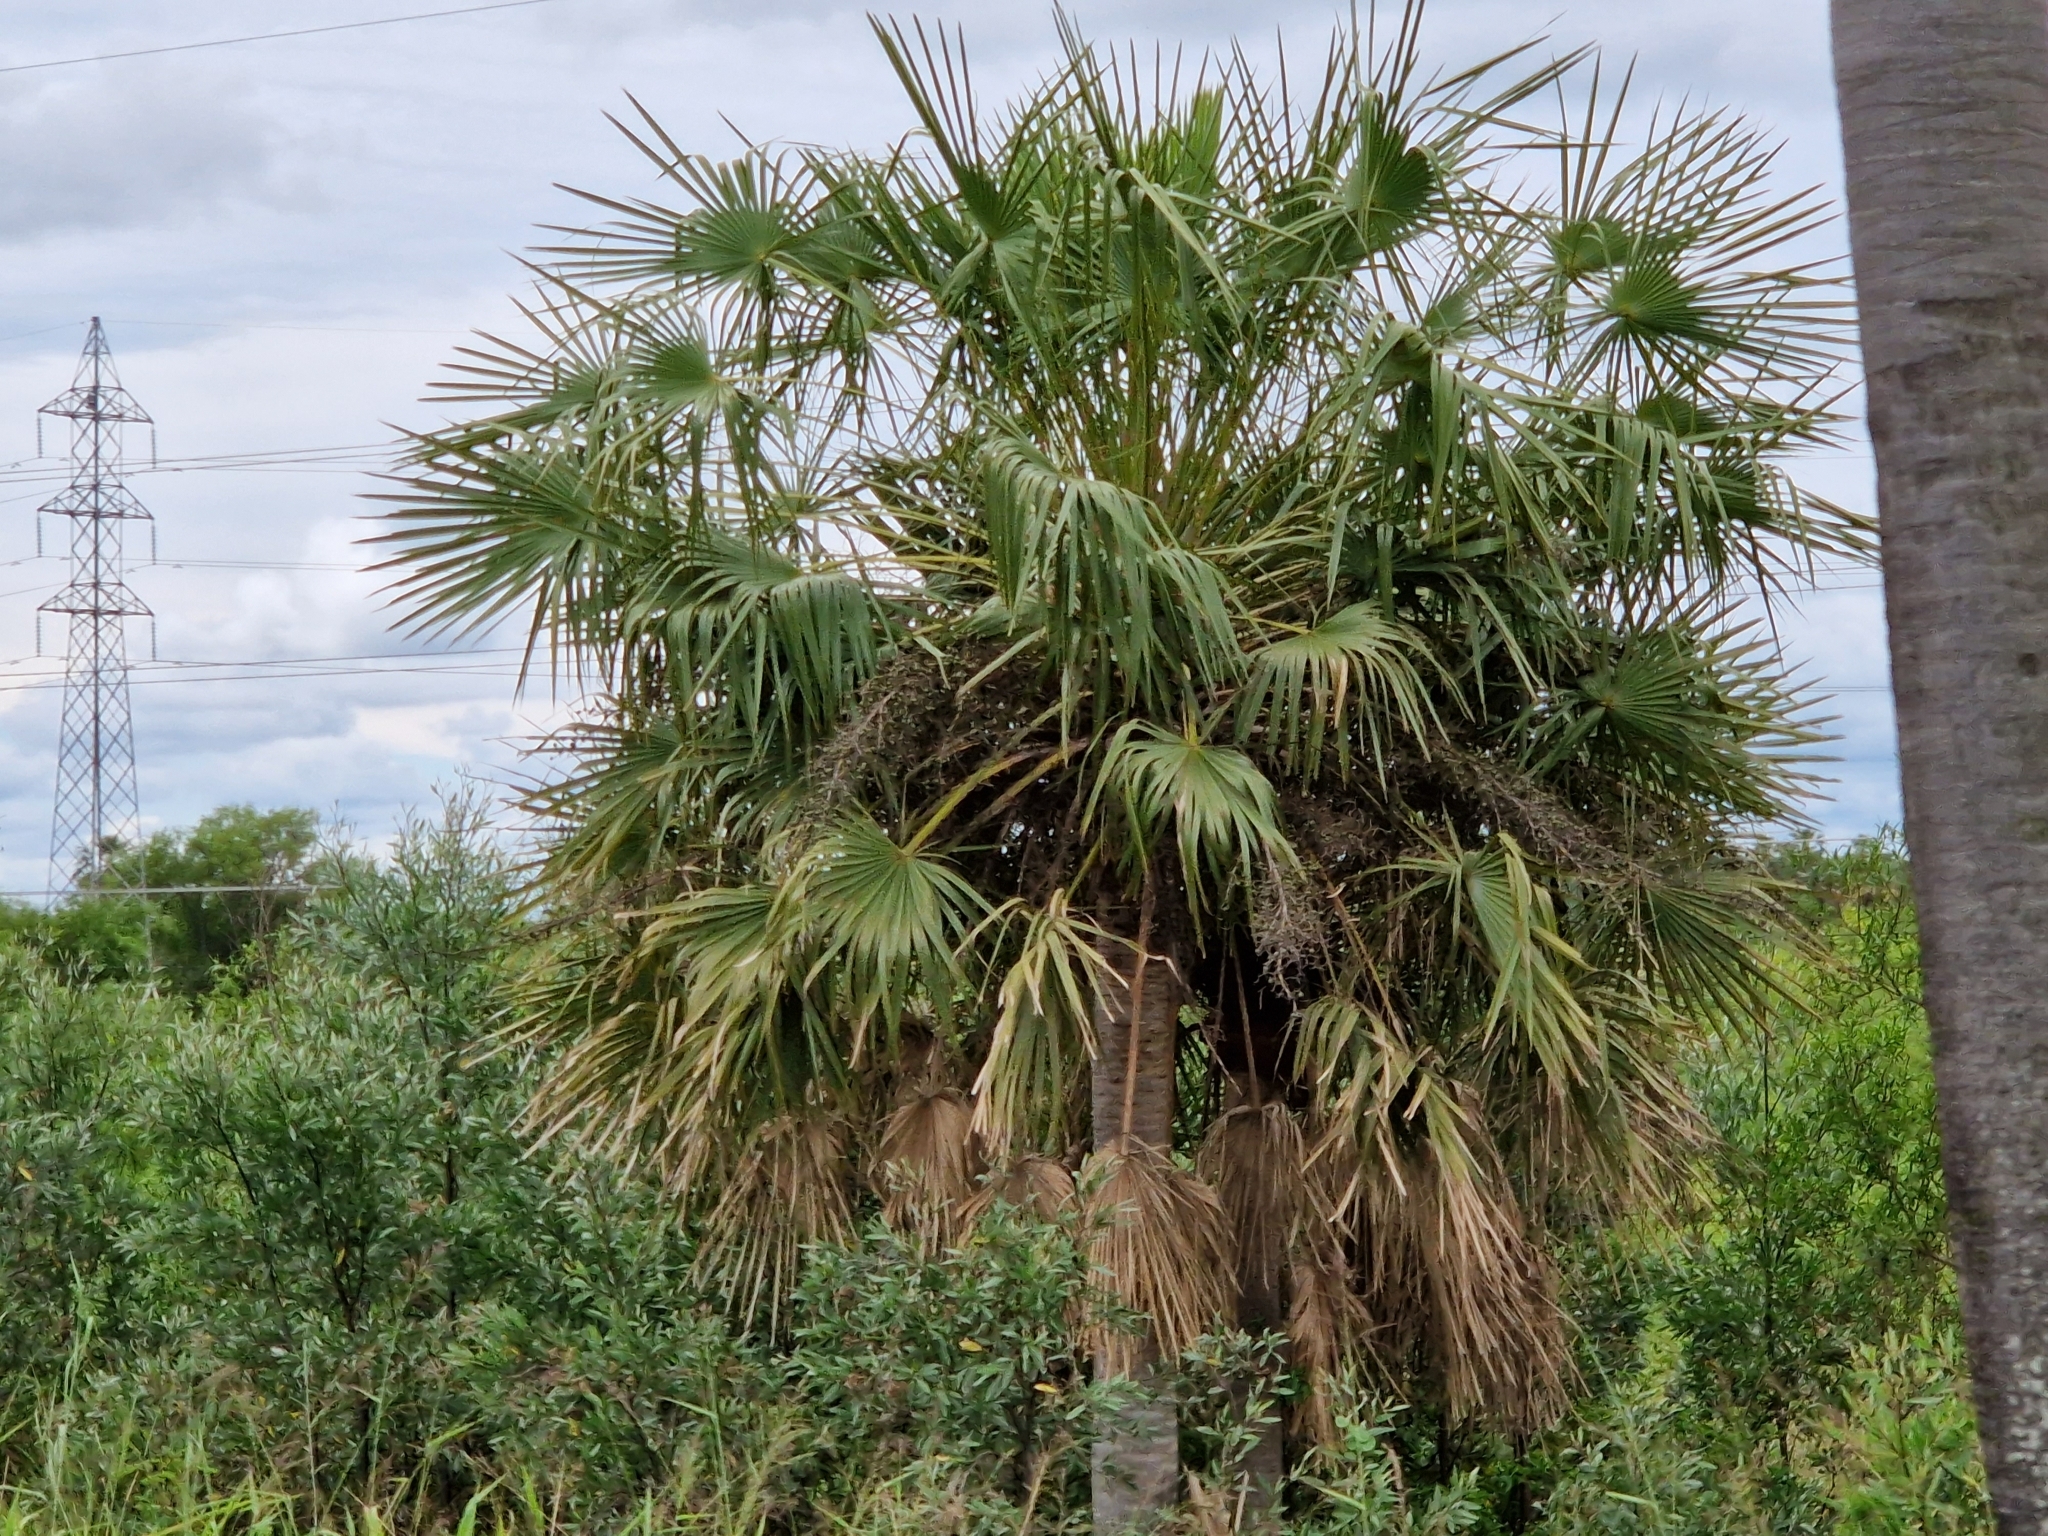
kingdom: Plantae
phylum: Tracheophyta
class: Liliopsida
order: Arecales
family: Arecaceae
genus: Copernicia
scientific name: Copernicia alba
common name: Caranday palm
